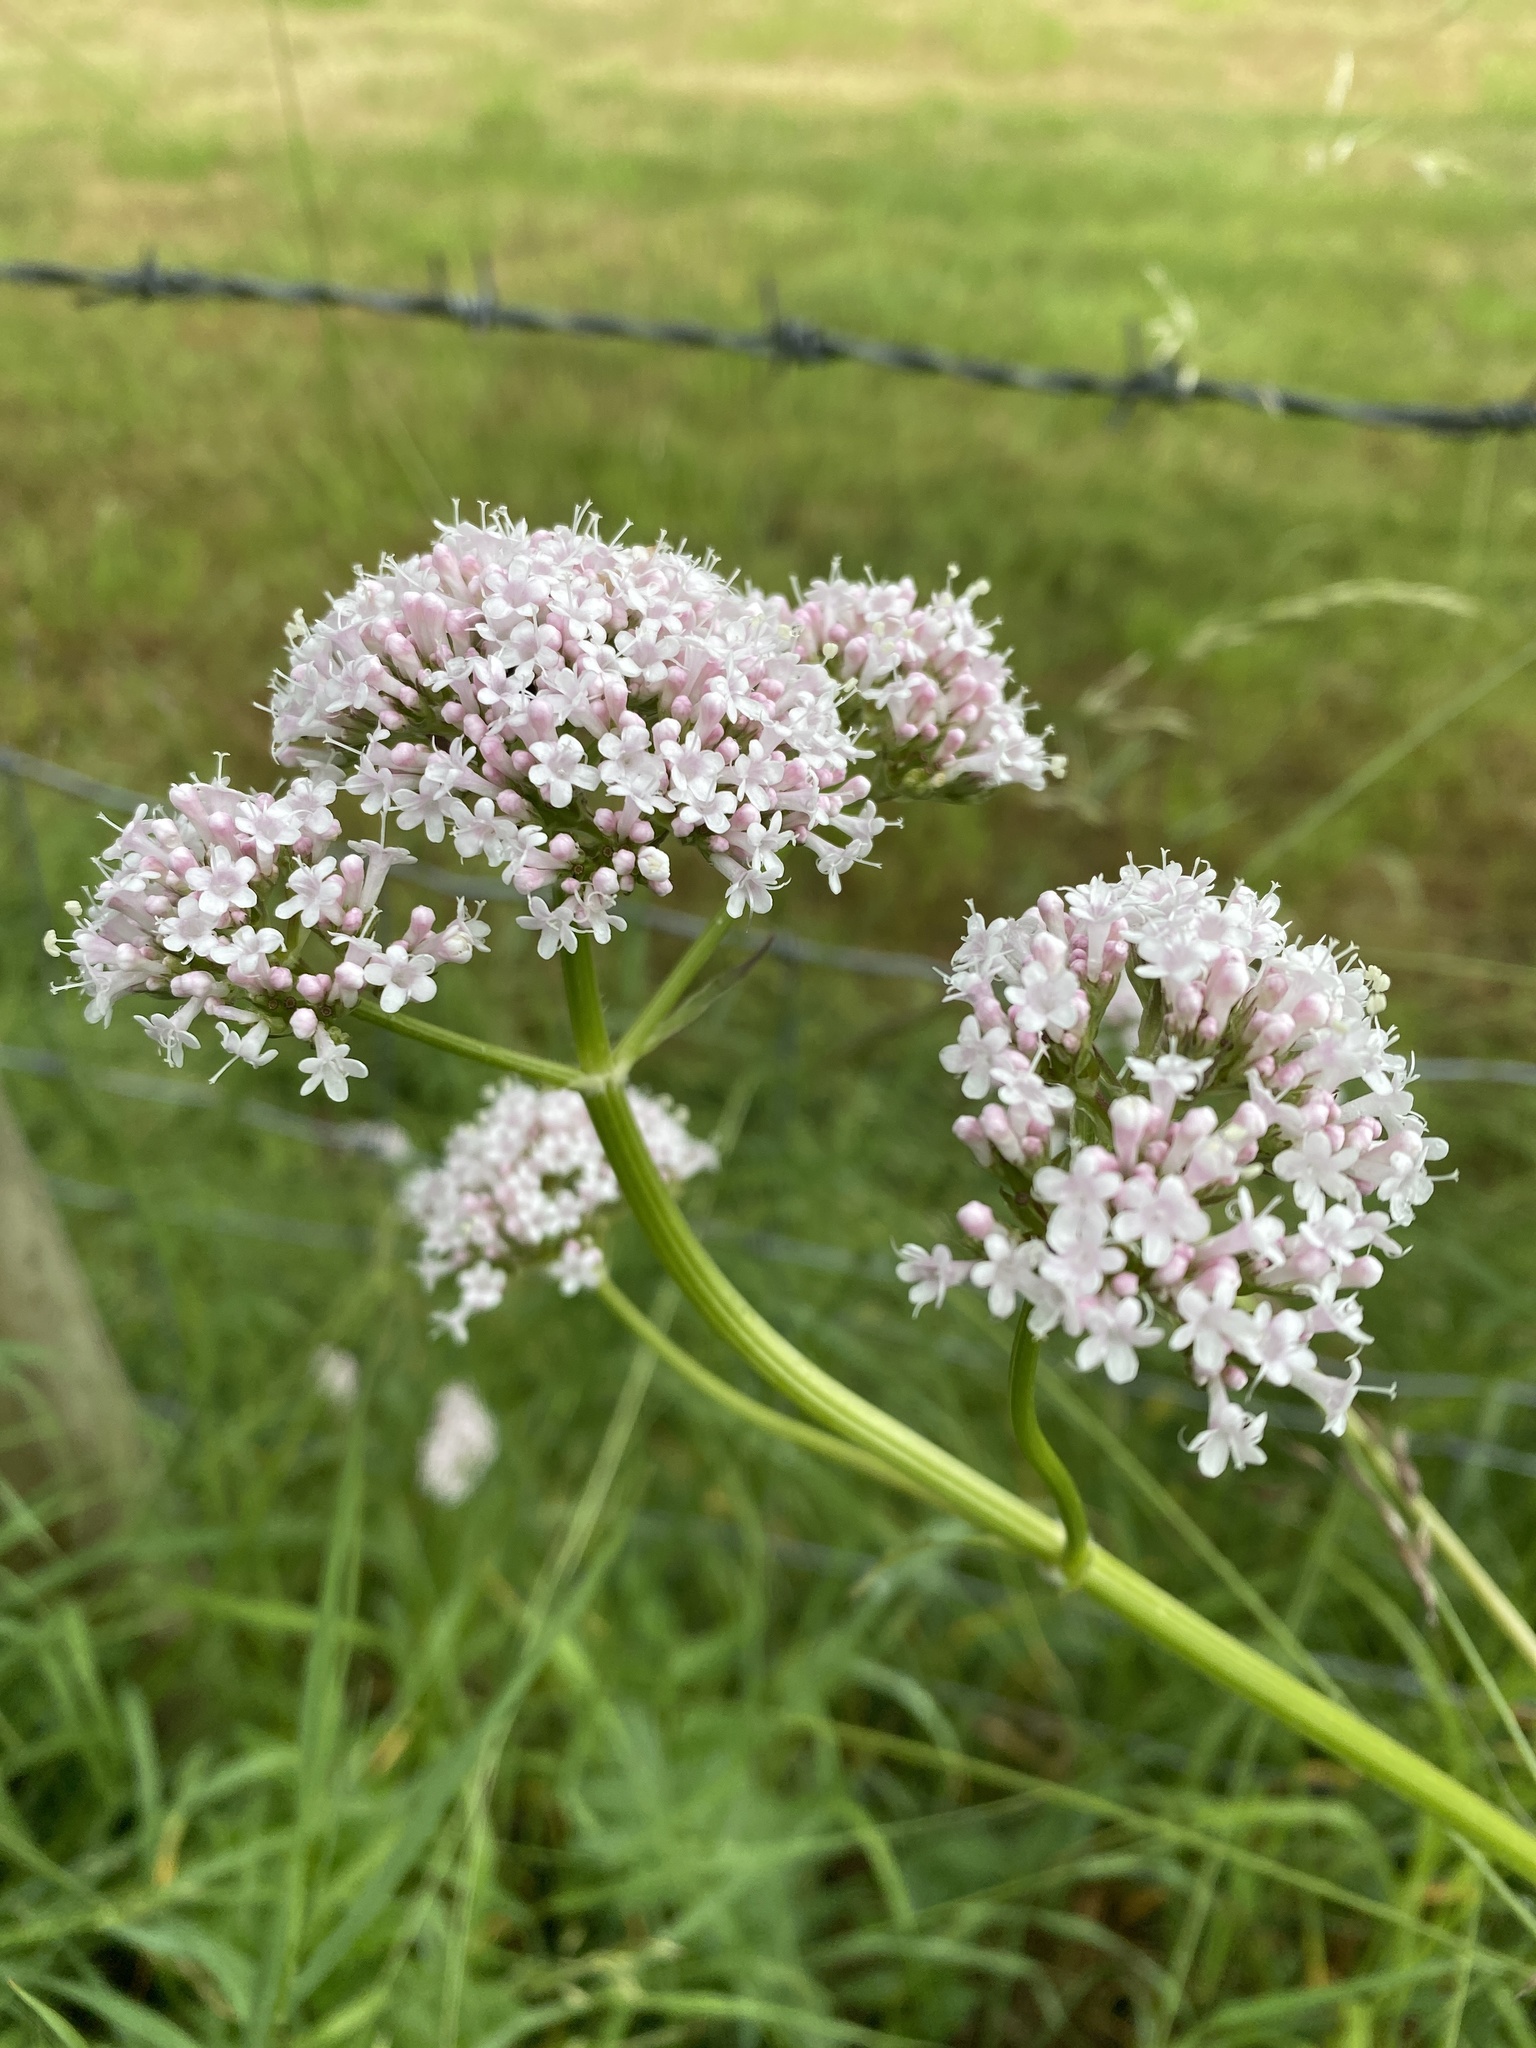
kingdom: Plantae
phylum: Tracheophyta
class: Magnoliopsida
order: Dipsacales
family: Caprifoliaceae
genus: Valeriana
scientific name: Valeriana officinalis
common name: Common valerian
